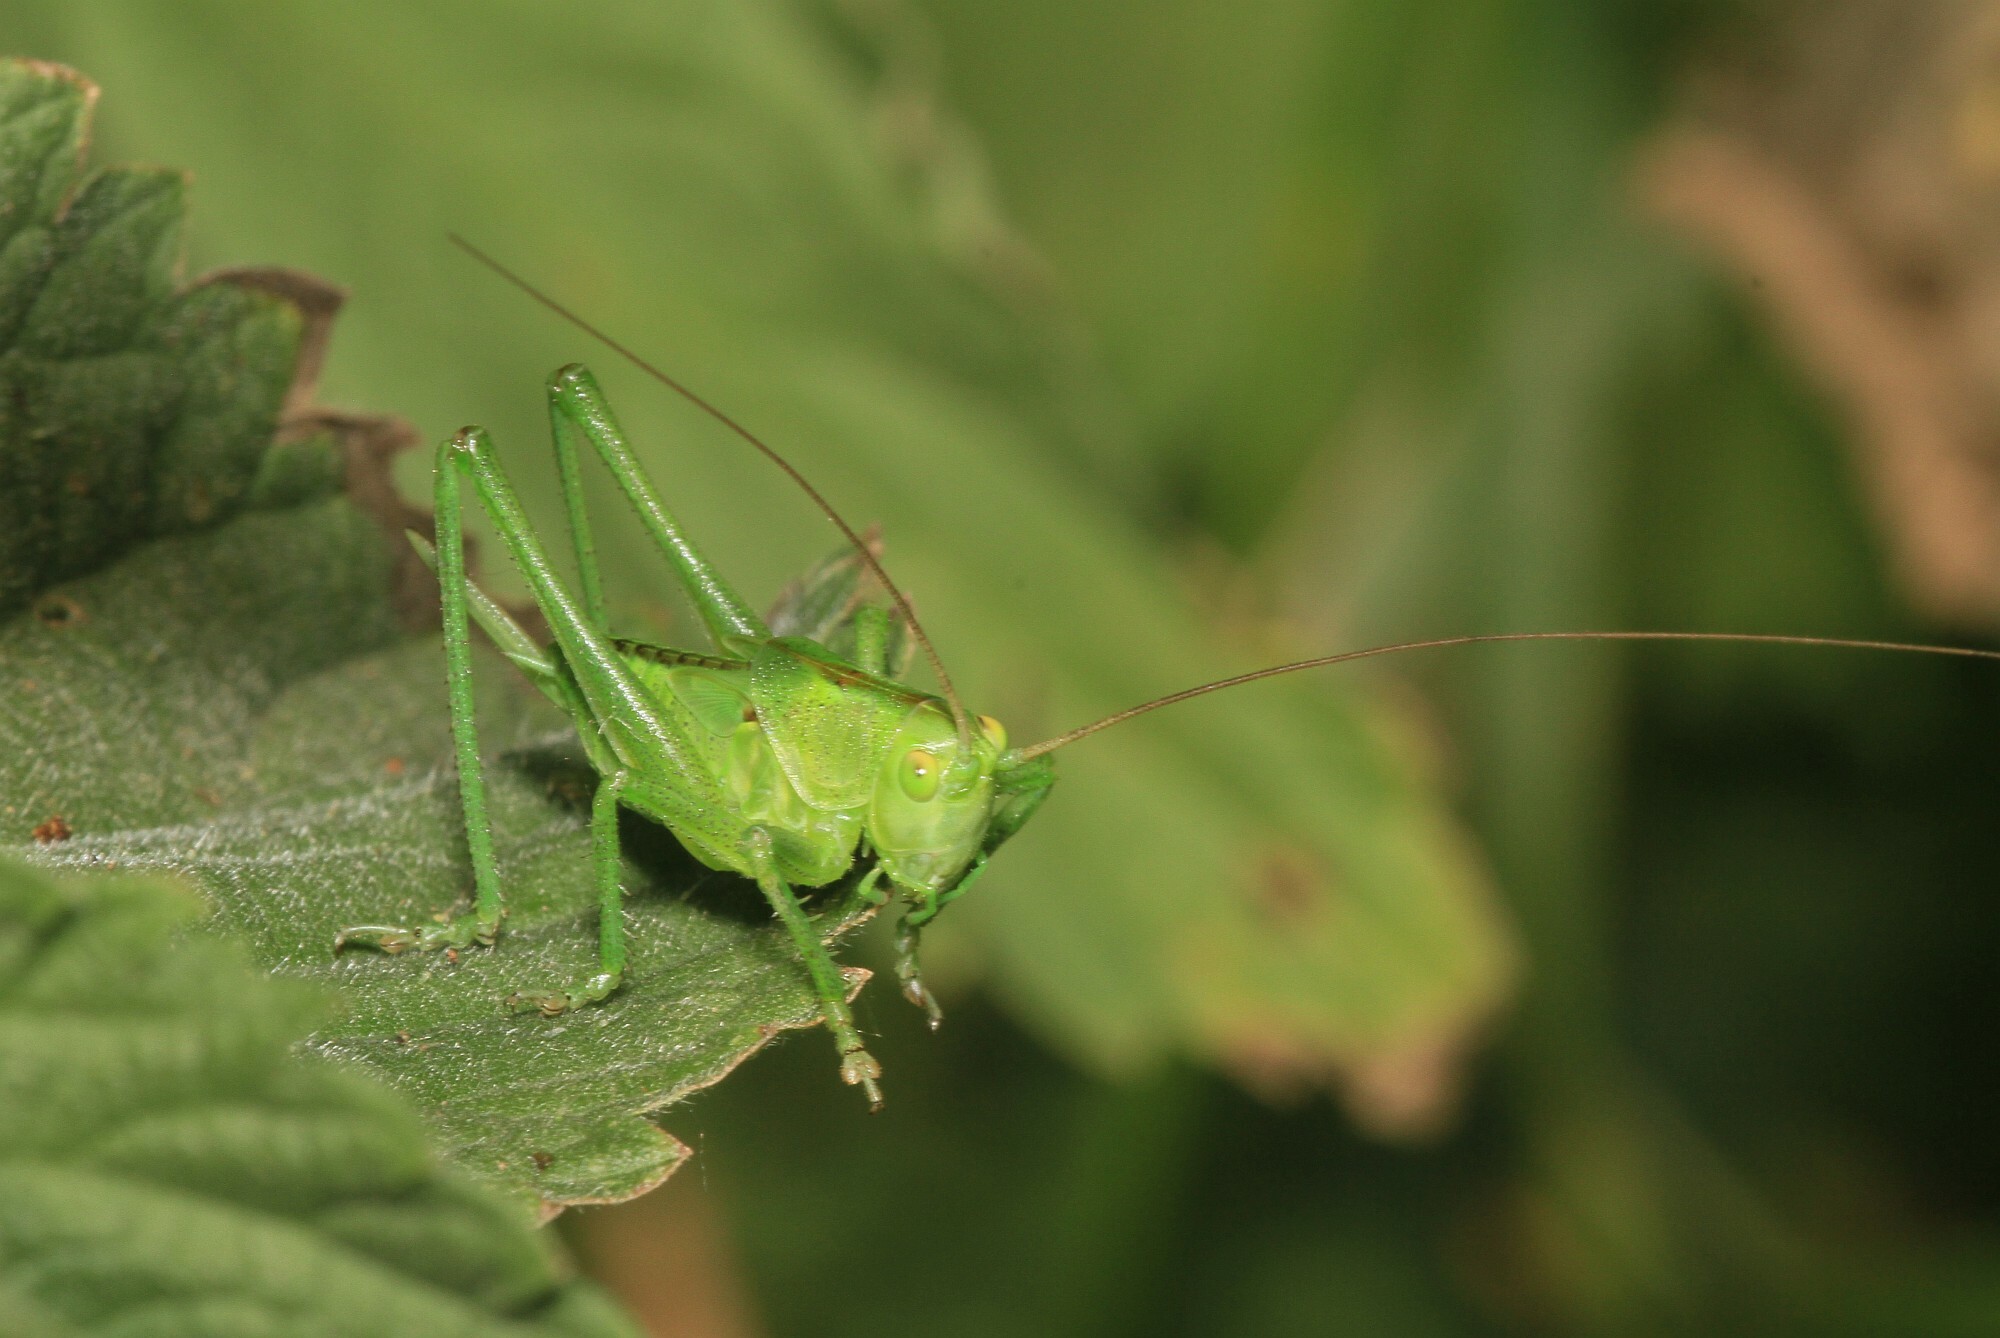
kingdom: Animalia
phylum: Arthropoda
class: Insecta
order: Orthoptera
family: Tettigoniidae
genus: Tettigonia
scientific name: Tettigonia viridissima
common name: Great green bush-cricket
